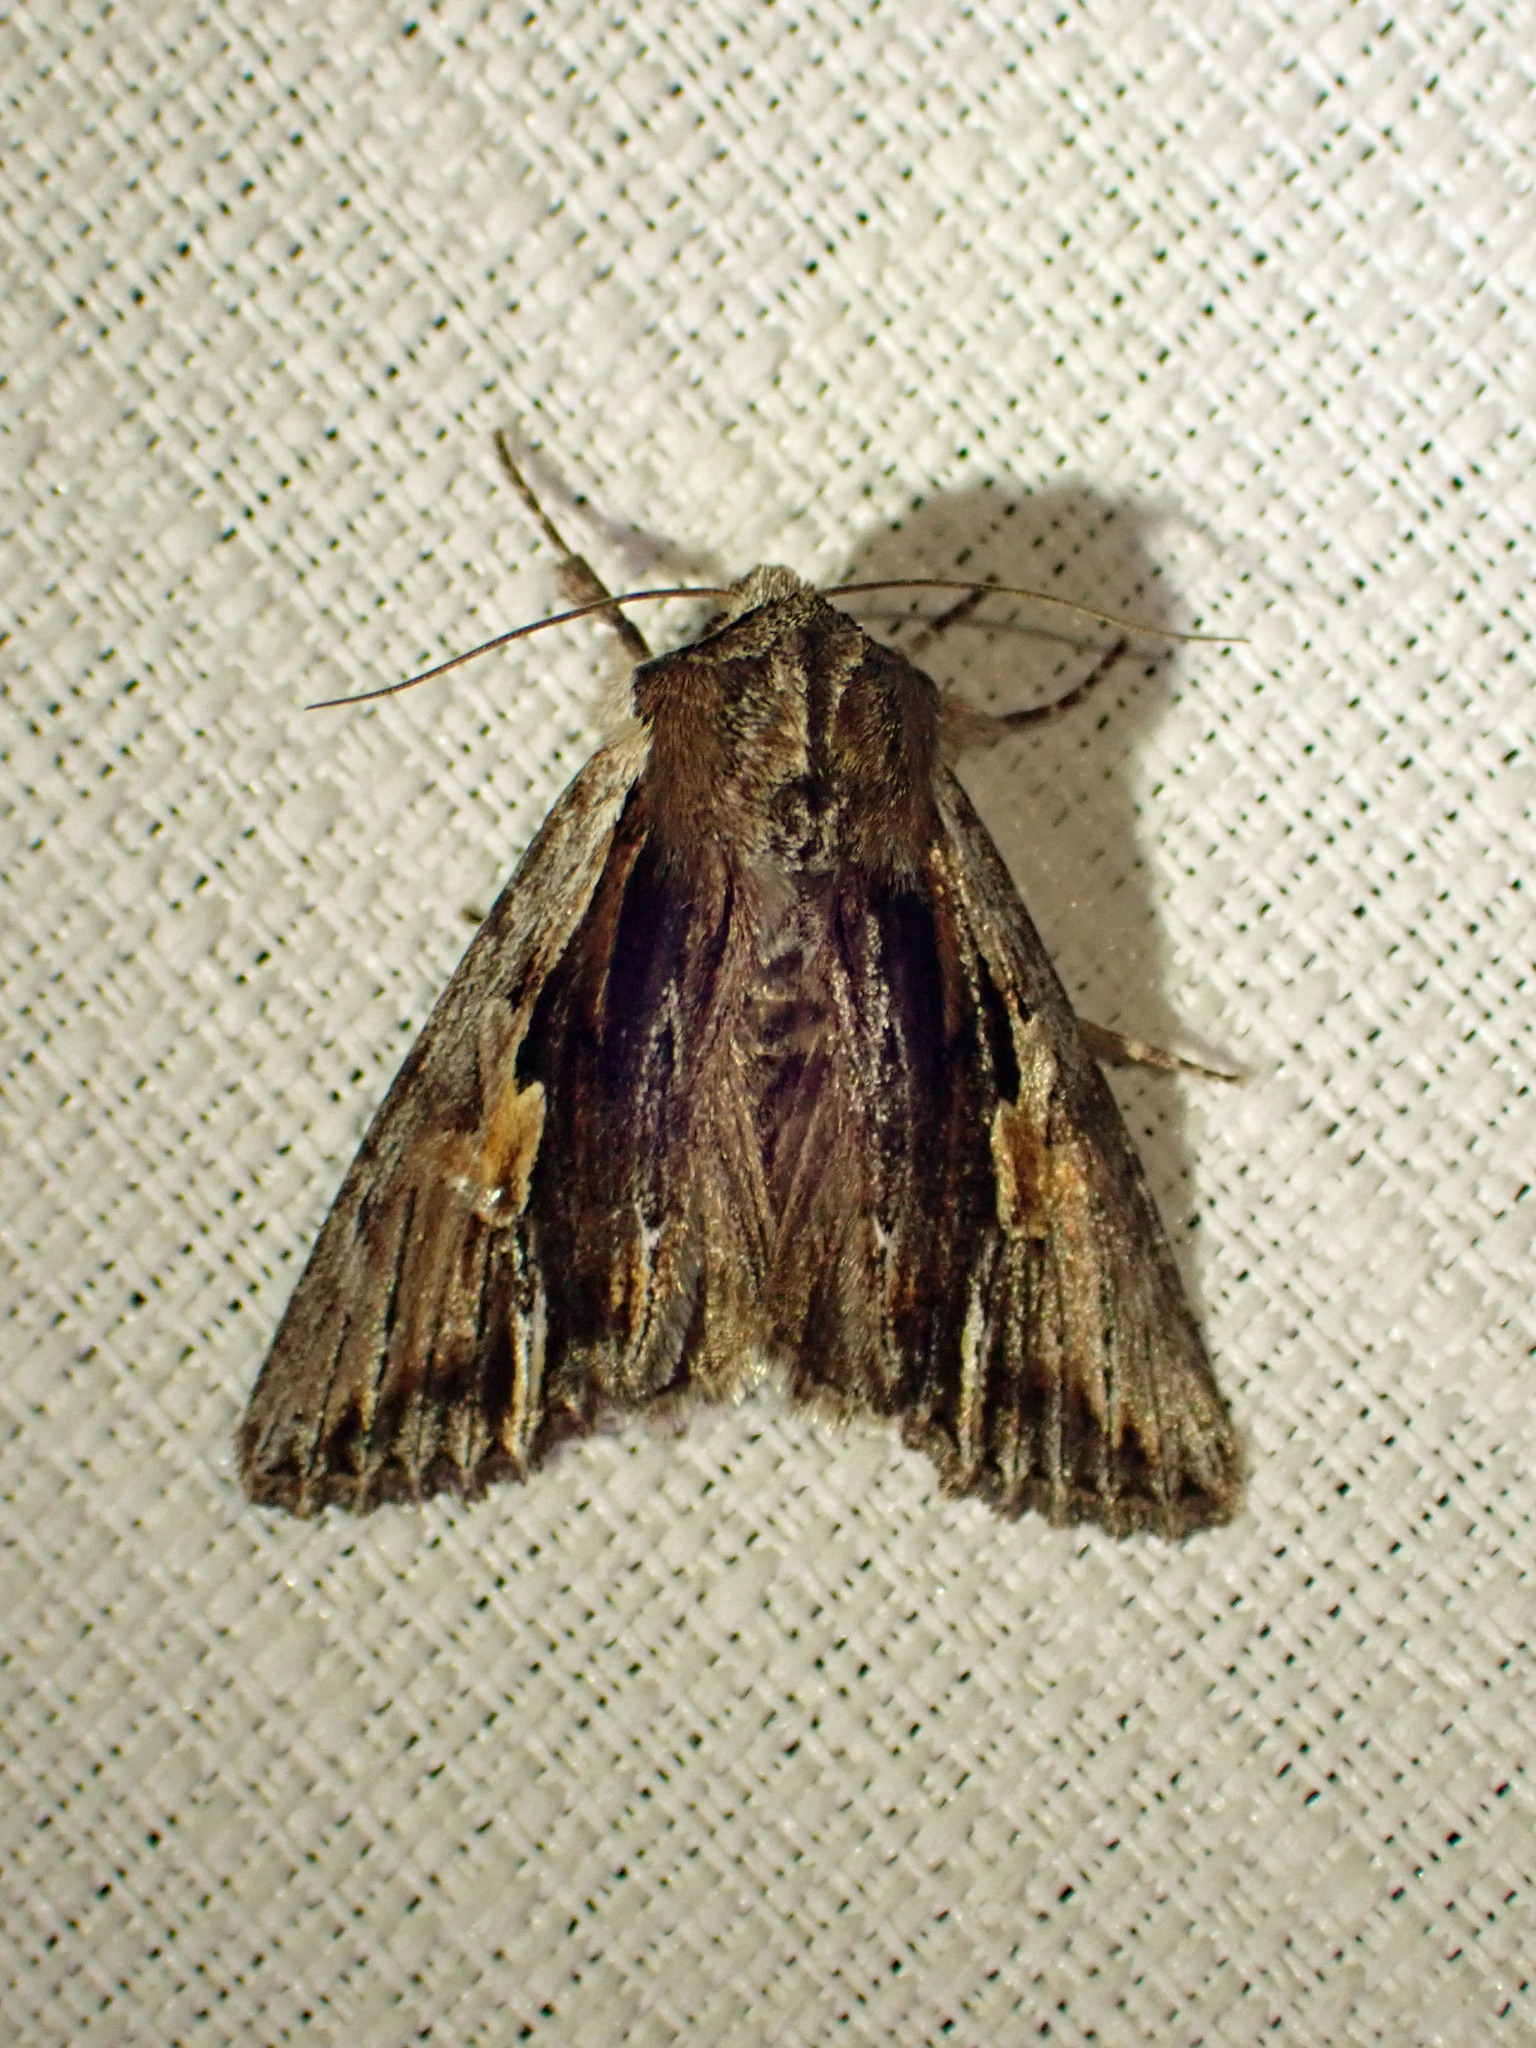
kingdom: Animalia
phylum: Arthropoda
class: Insecta
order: Lepidoptera
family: Noctuidae
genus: Achatia
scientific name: Achatia evicta
